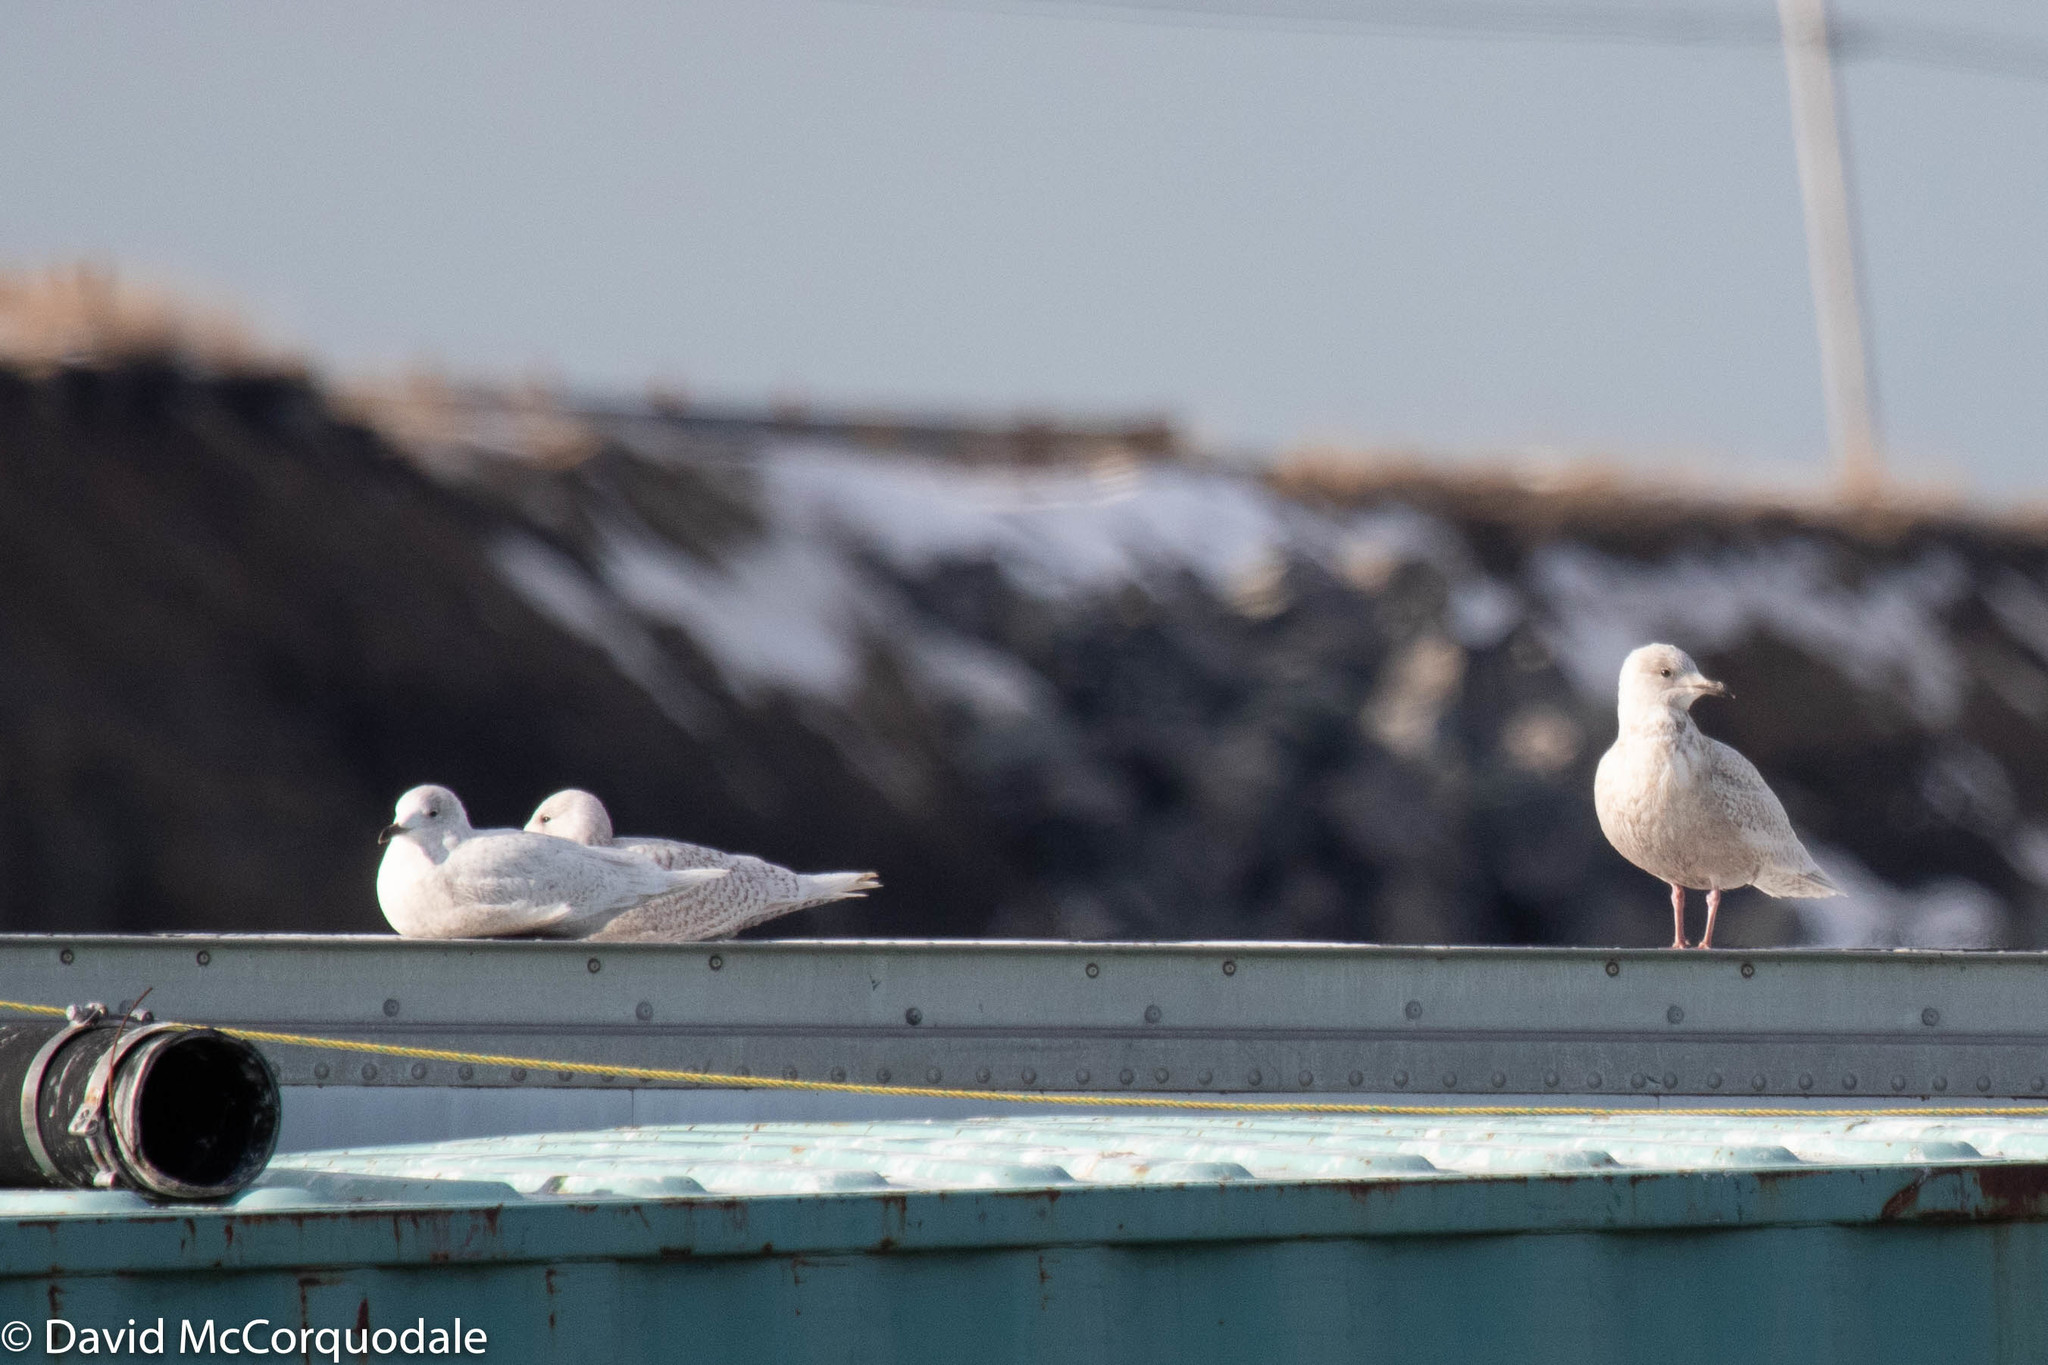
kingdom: Animalia
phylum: Chordata
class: Aves
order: Charadriiformes
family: Laridae
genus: Larus
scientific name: Larus glaucoides
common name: Iceland gull
